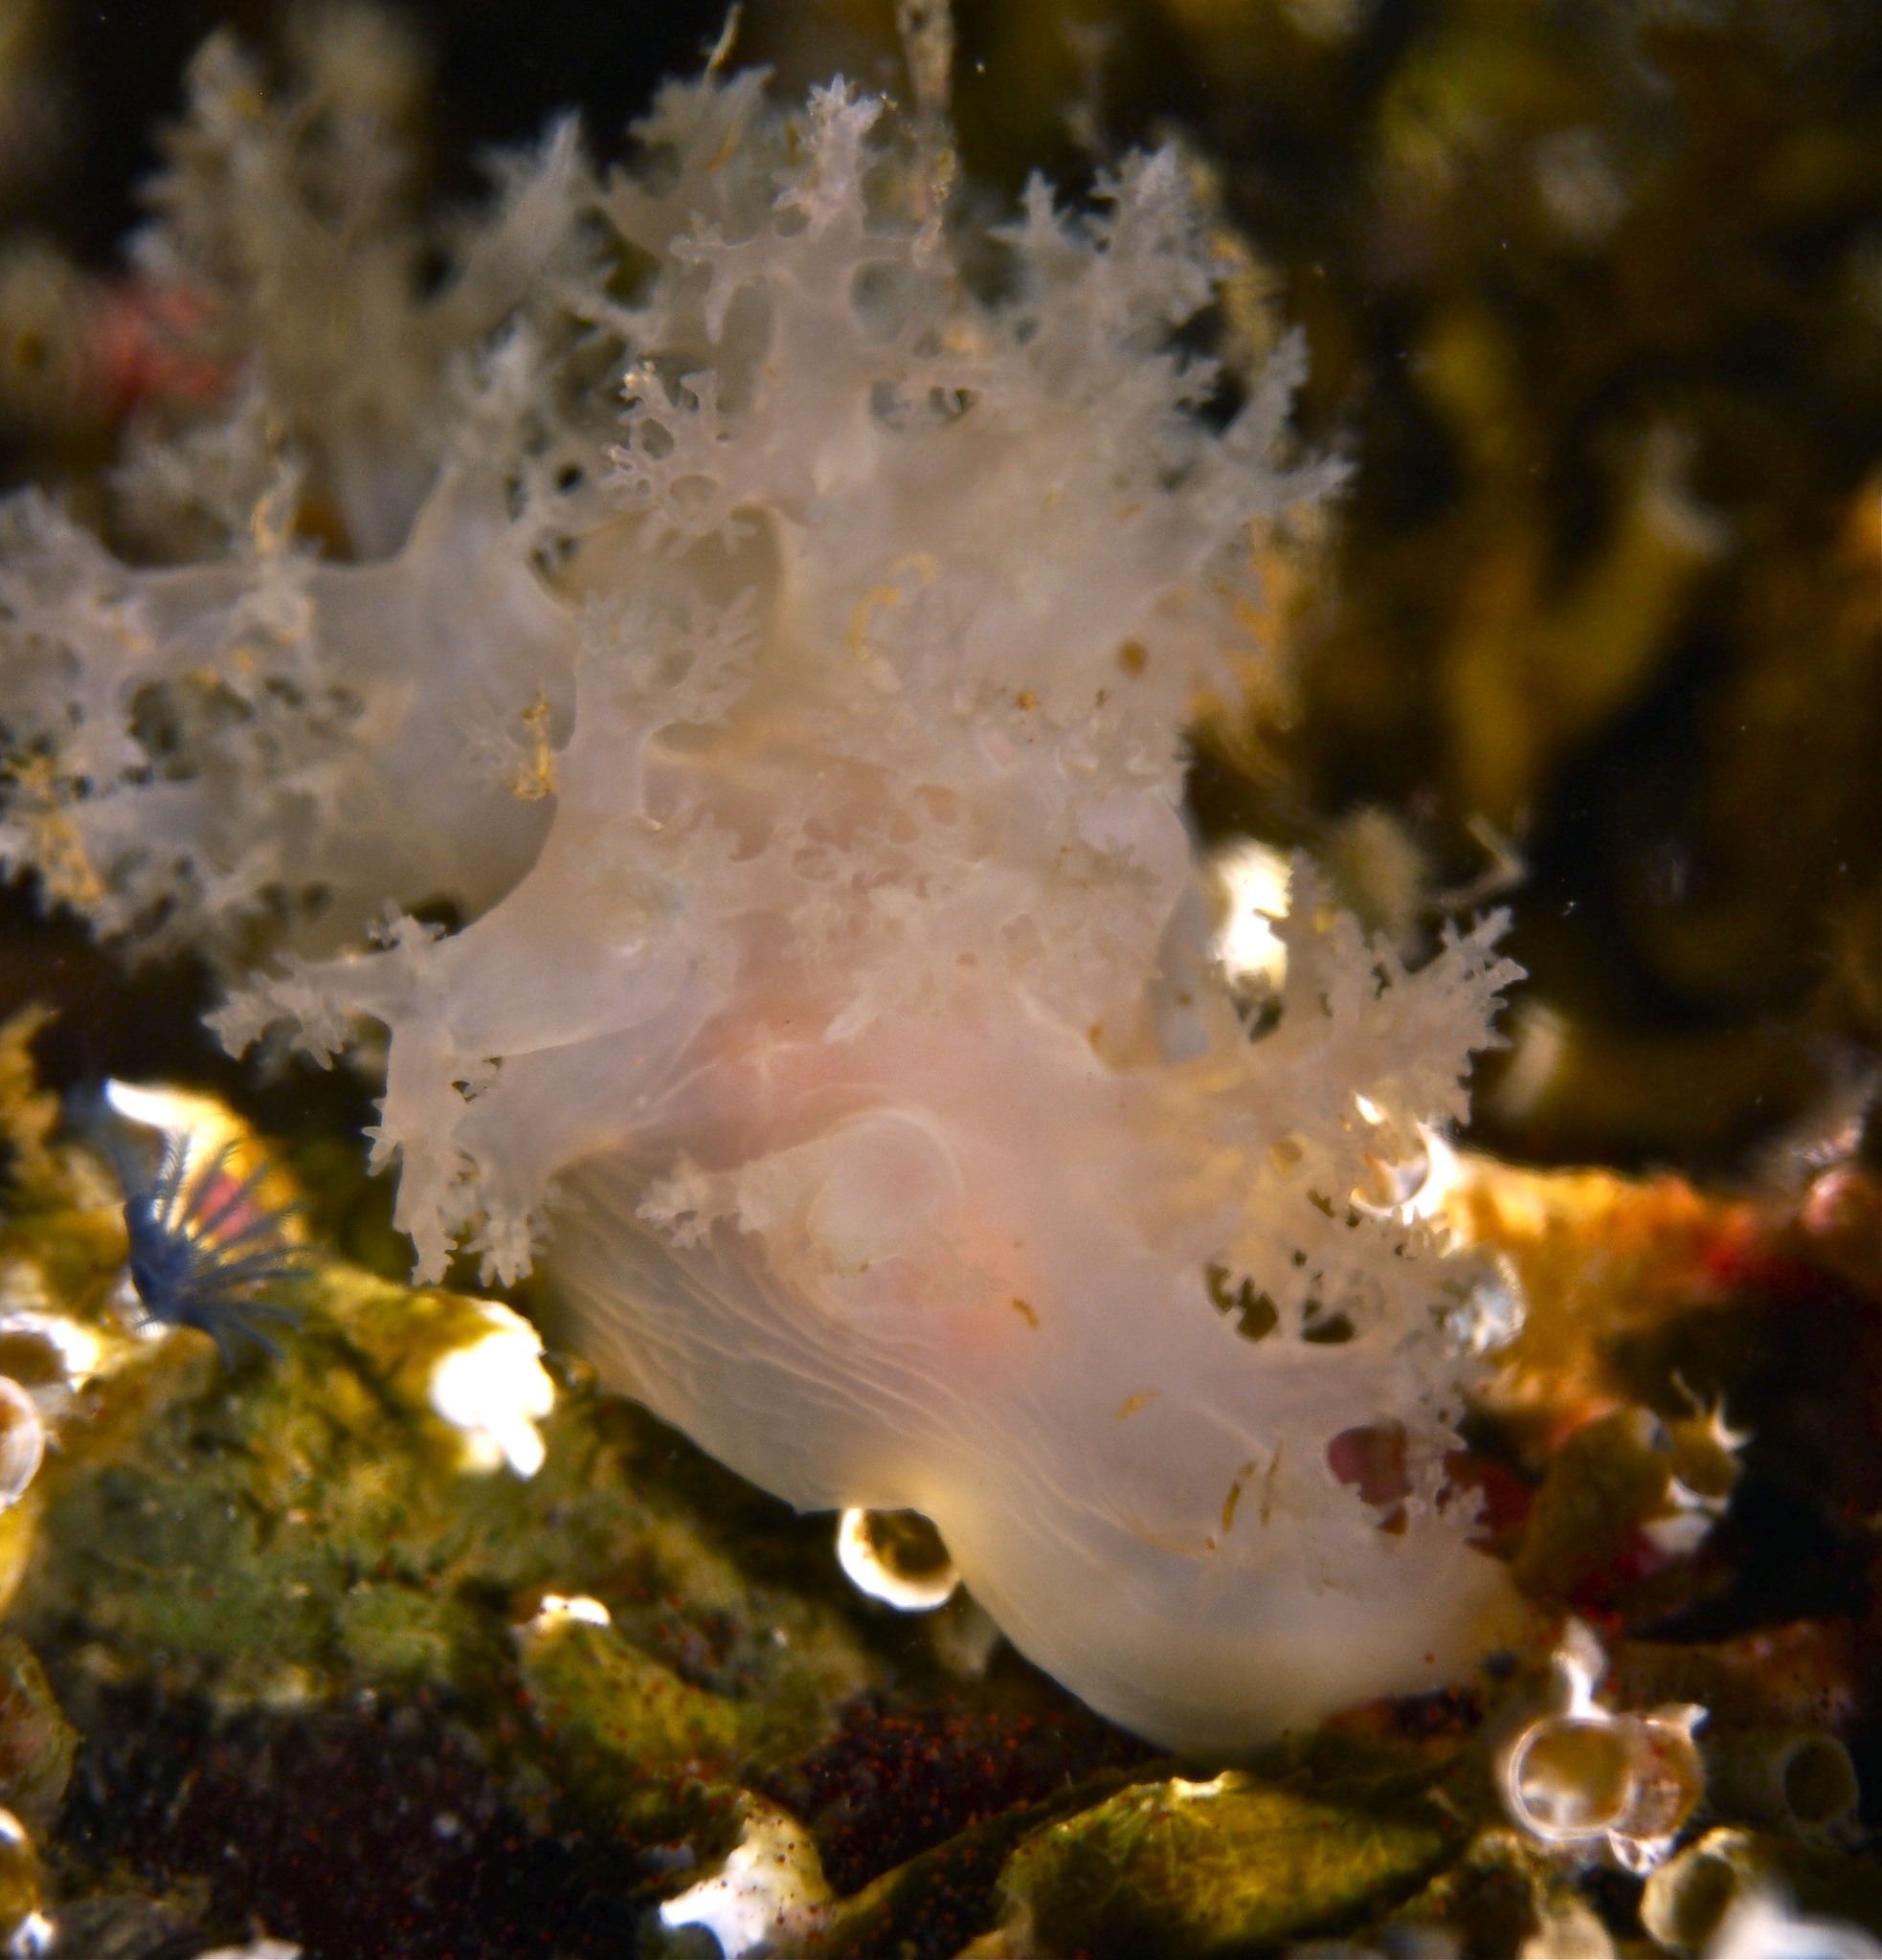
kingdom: Animalia
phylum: Mollusca
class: Gastropoda
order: Nudibranchia
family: Dendronotidae
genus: Dendronotus
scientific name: Dendronotus lacteus
